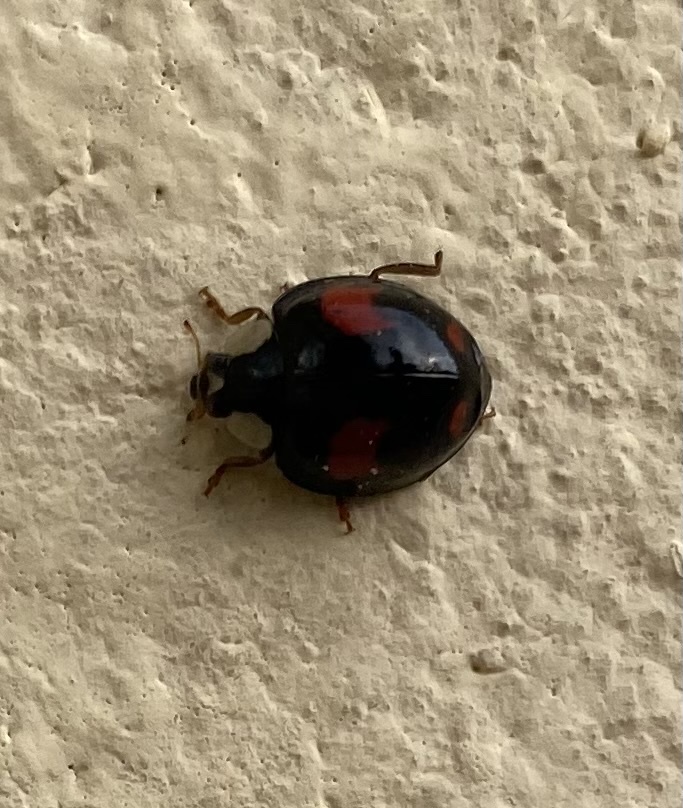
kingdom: Animalia
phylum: Arthropoda
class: Insecta
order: Coleoptera
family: Coccinellidae
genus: Harmonia
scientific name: Harmonia axyridis
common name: Harlequin ladybird
